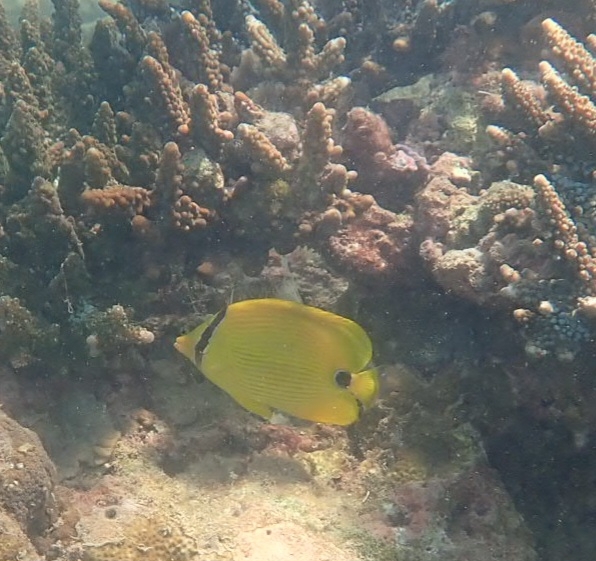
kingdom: Animalia
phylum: Chordata
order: Perciformes
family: Chaetodontidae
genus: Chaetodon
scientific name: Chaetodon andamanensis
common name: Yellow butterflyfish
